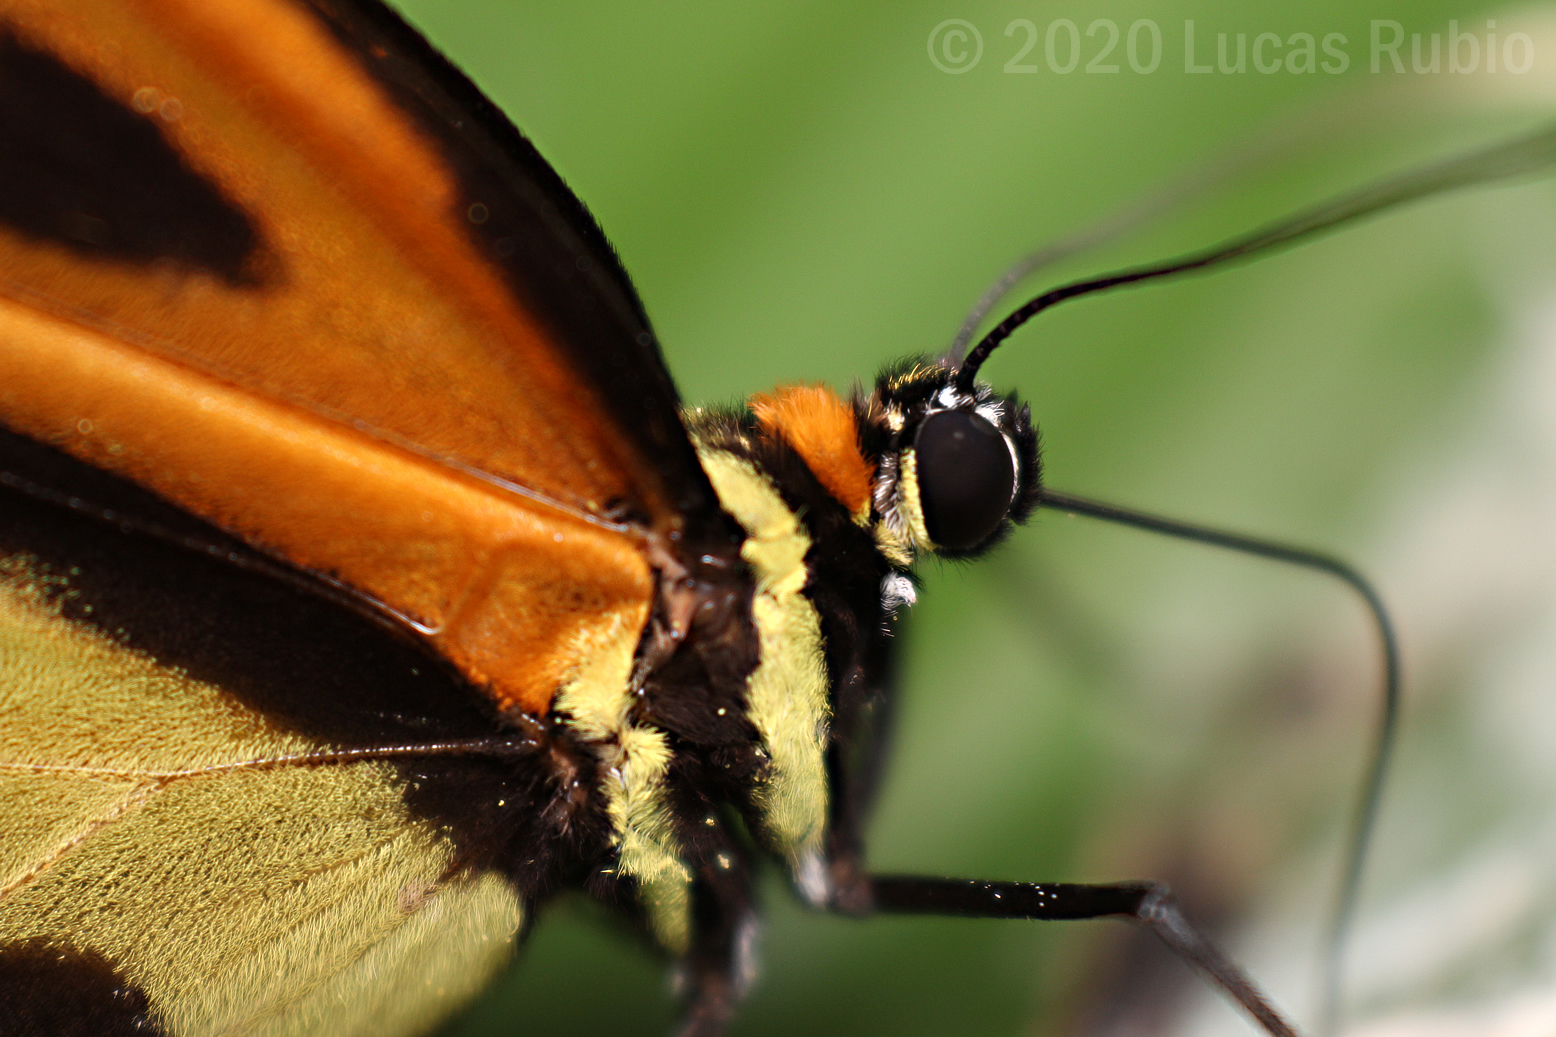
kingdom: Animalia
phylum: Arthropoda
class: Insecta
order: Lepidoptera
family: Nymphalidae
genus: Placidina
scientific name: Placidina euryanassa
